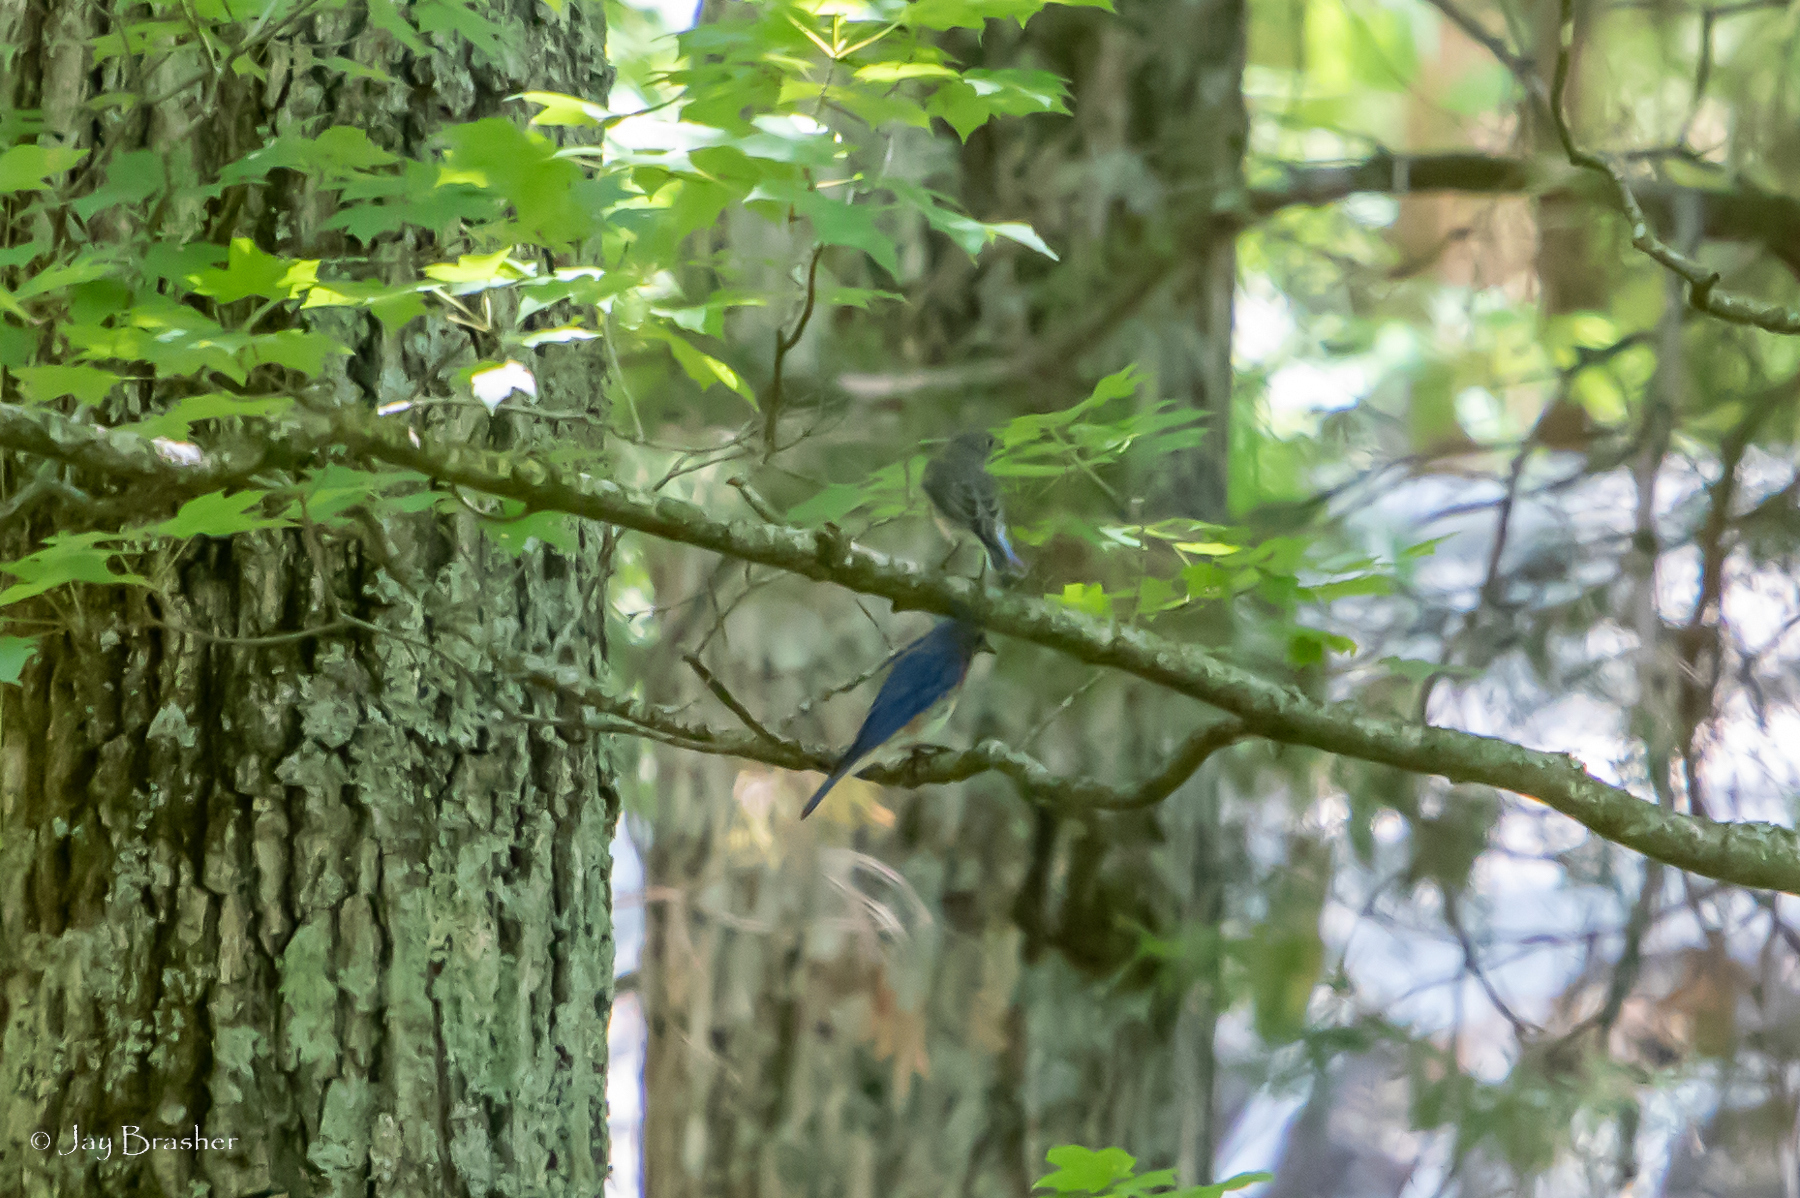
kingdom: Animalia
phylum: Chordata
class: Aves
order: Passeriformes
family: Turdidae
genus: Sialia
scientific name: Sialia sialis
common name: Eastern bluebird
